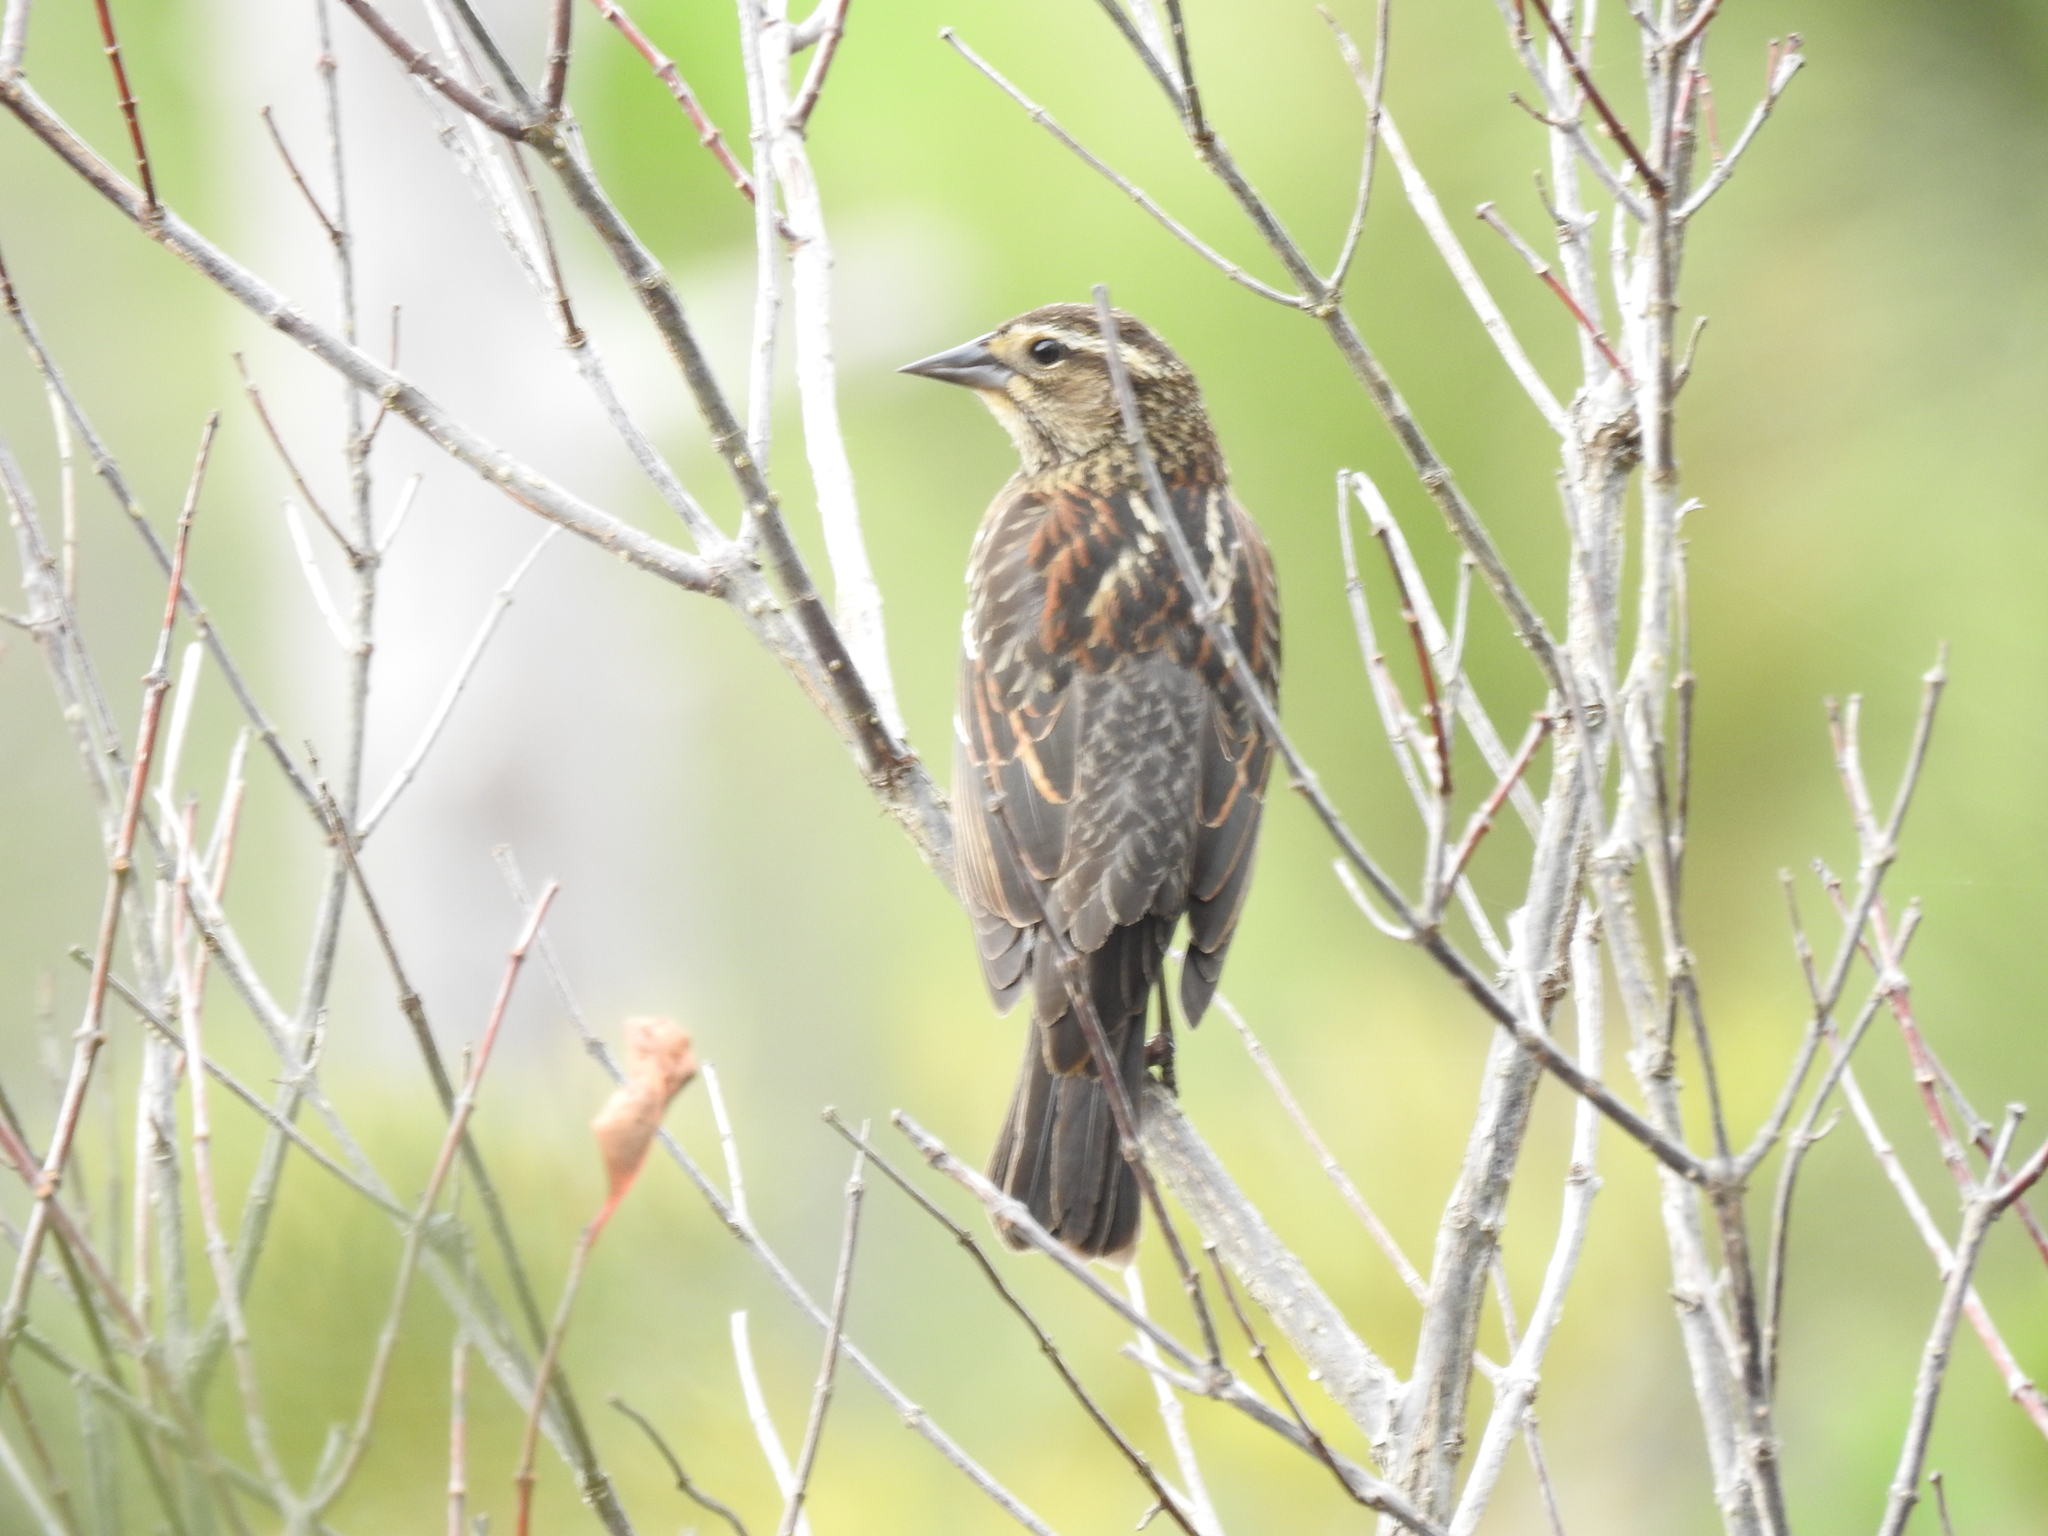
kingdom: Animalia
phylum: Chordata
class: Aves
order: Passeriformes
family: Icteridae
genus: Agelaius
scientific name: Agelaius phoeniceus
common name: Red-winged blackbird
